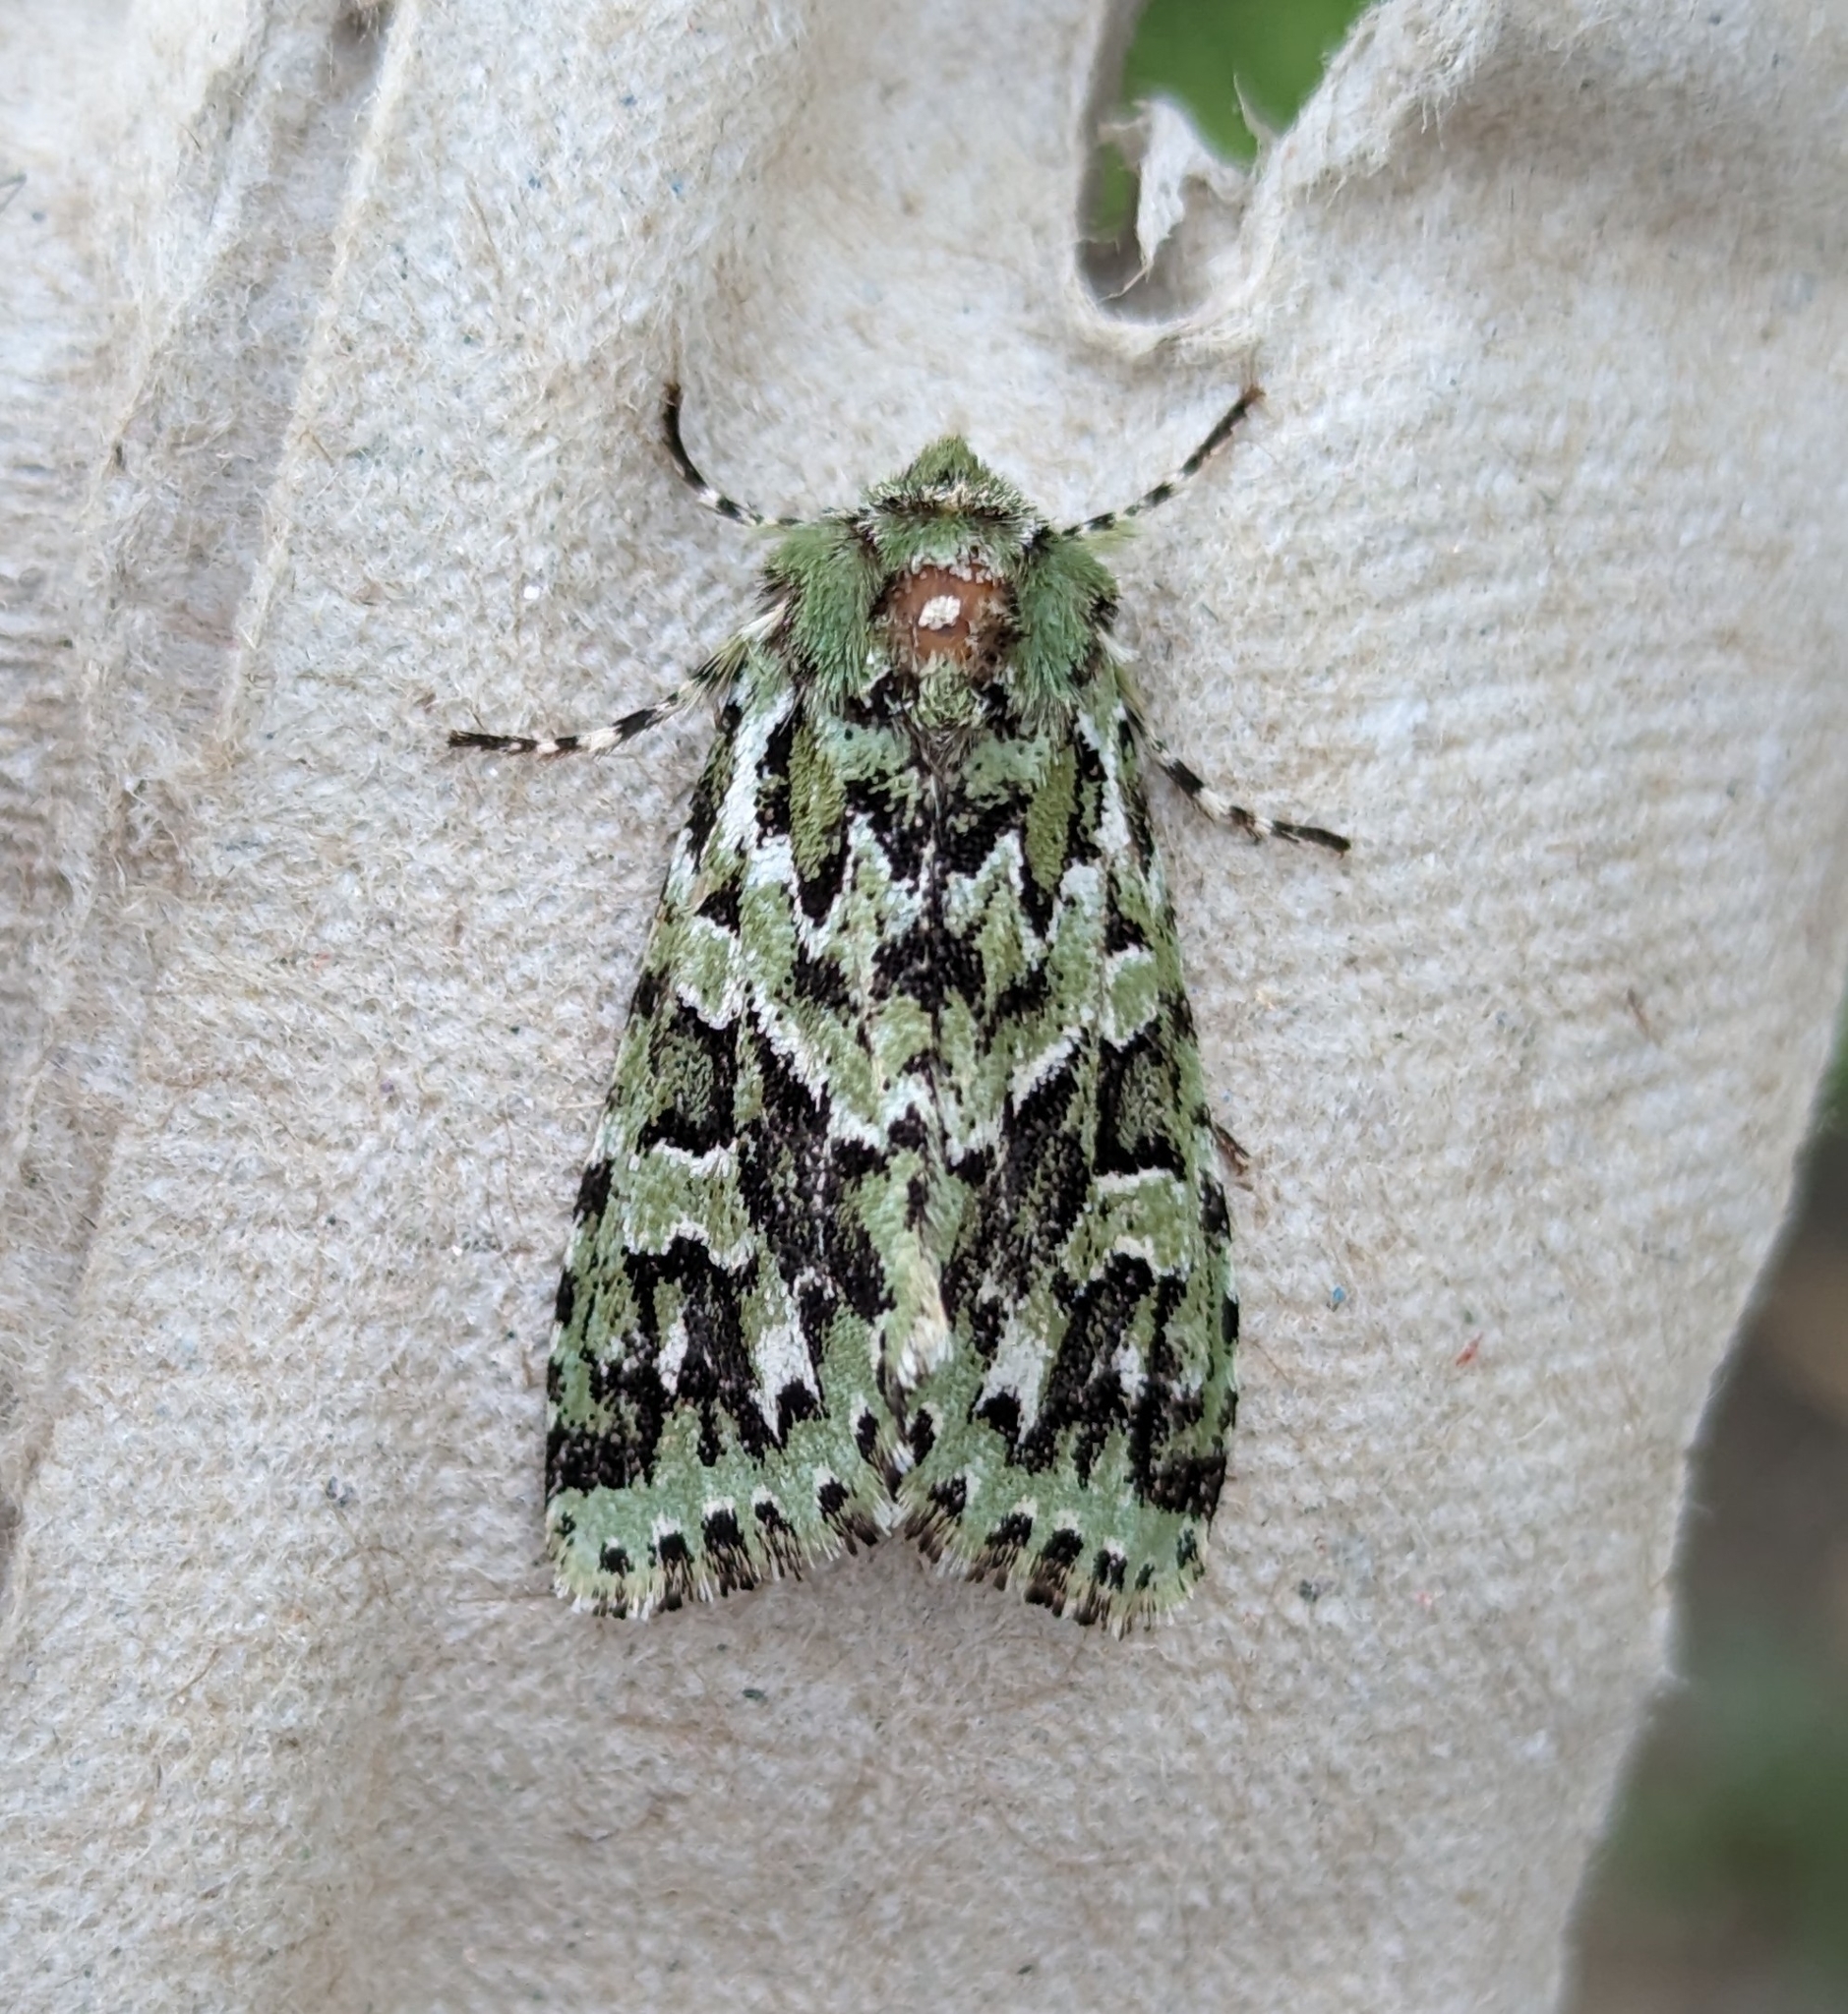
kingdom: Animalia
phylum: Arthropoda
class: Insecta
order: Lepidoptera
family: Noctuidae
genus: Feralia
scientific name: Feralia comstocki
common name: Comstock's sallow
